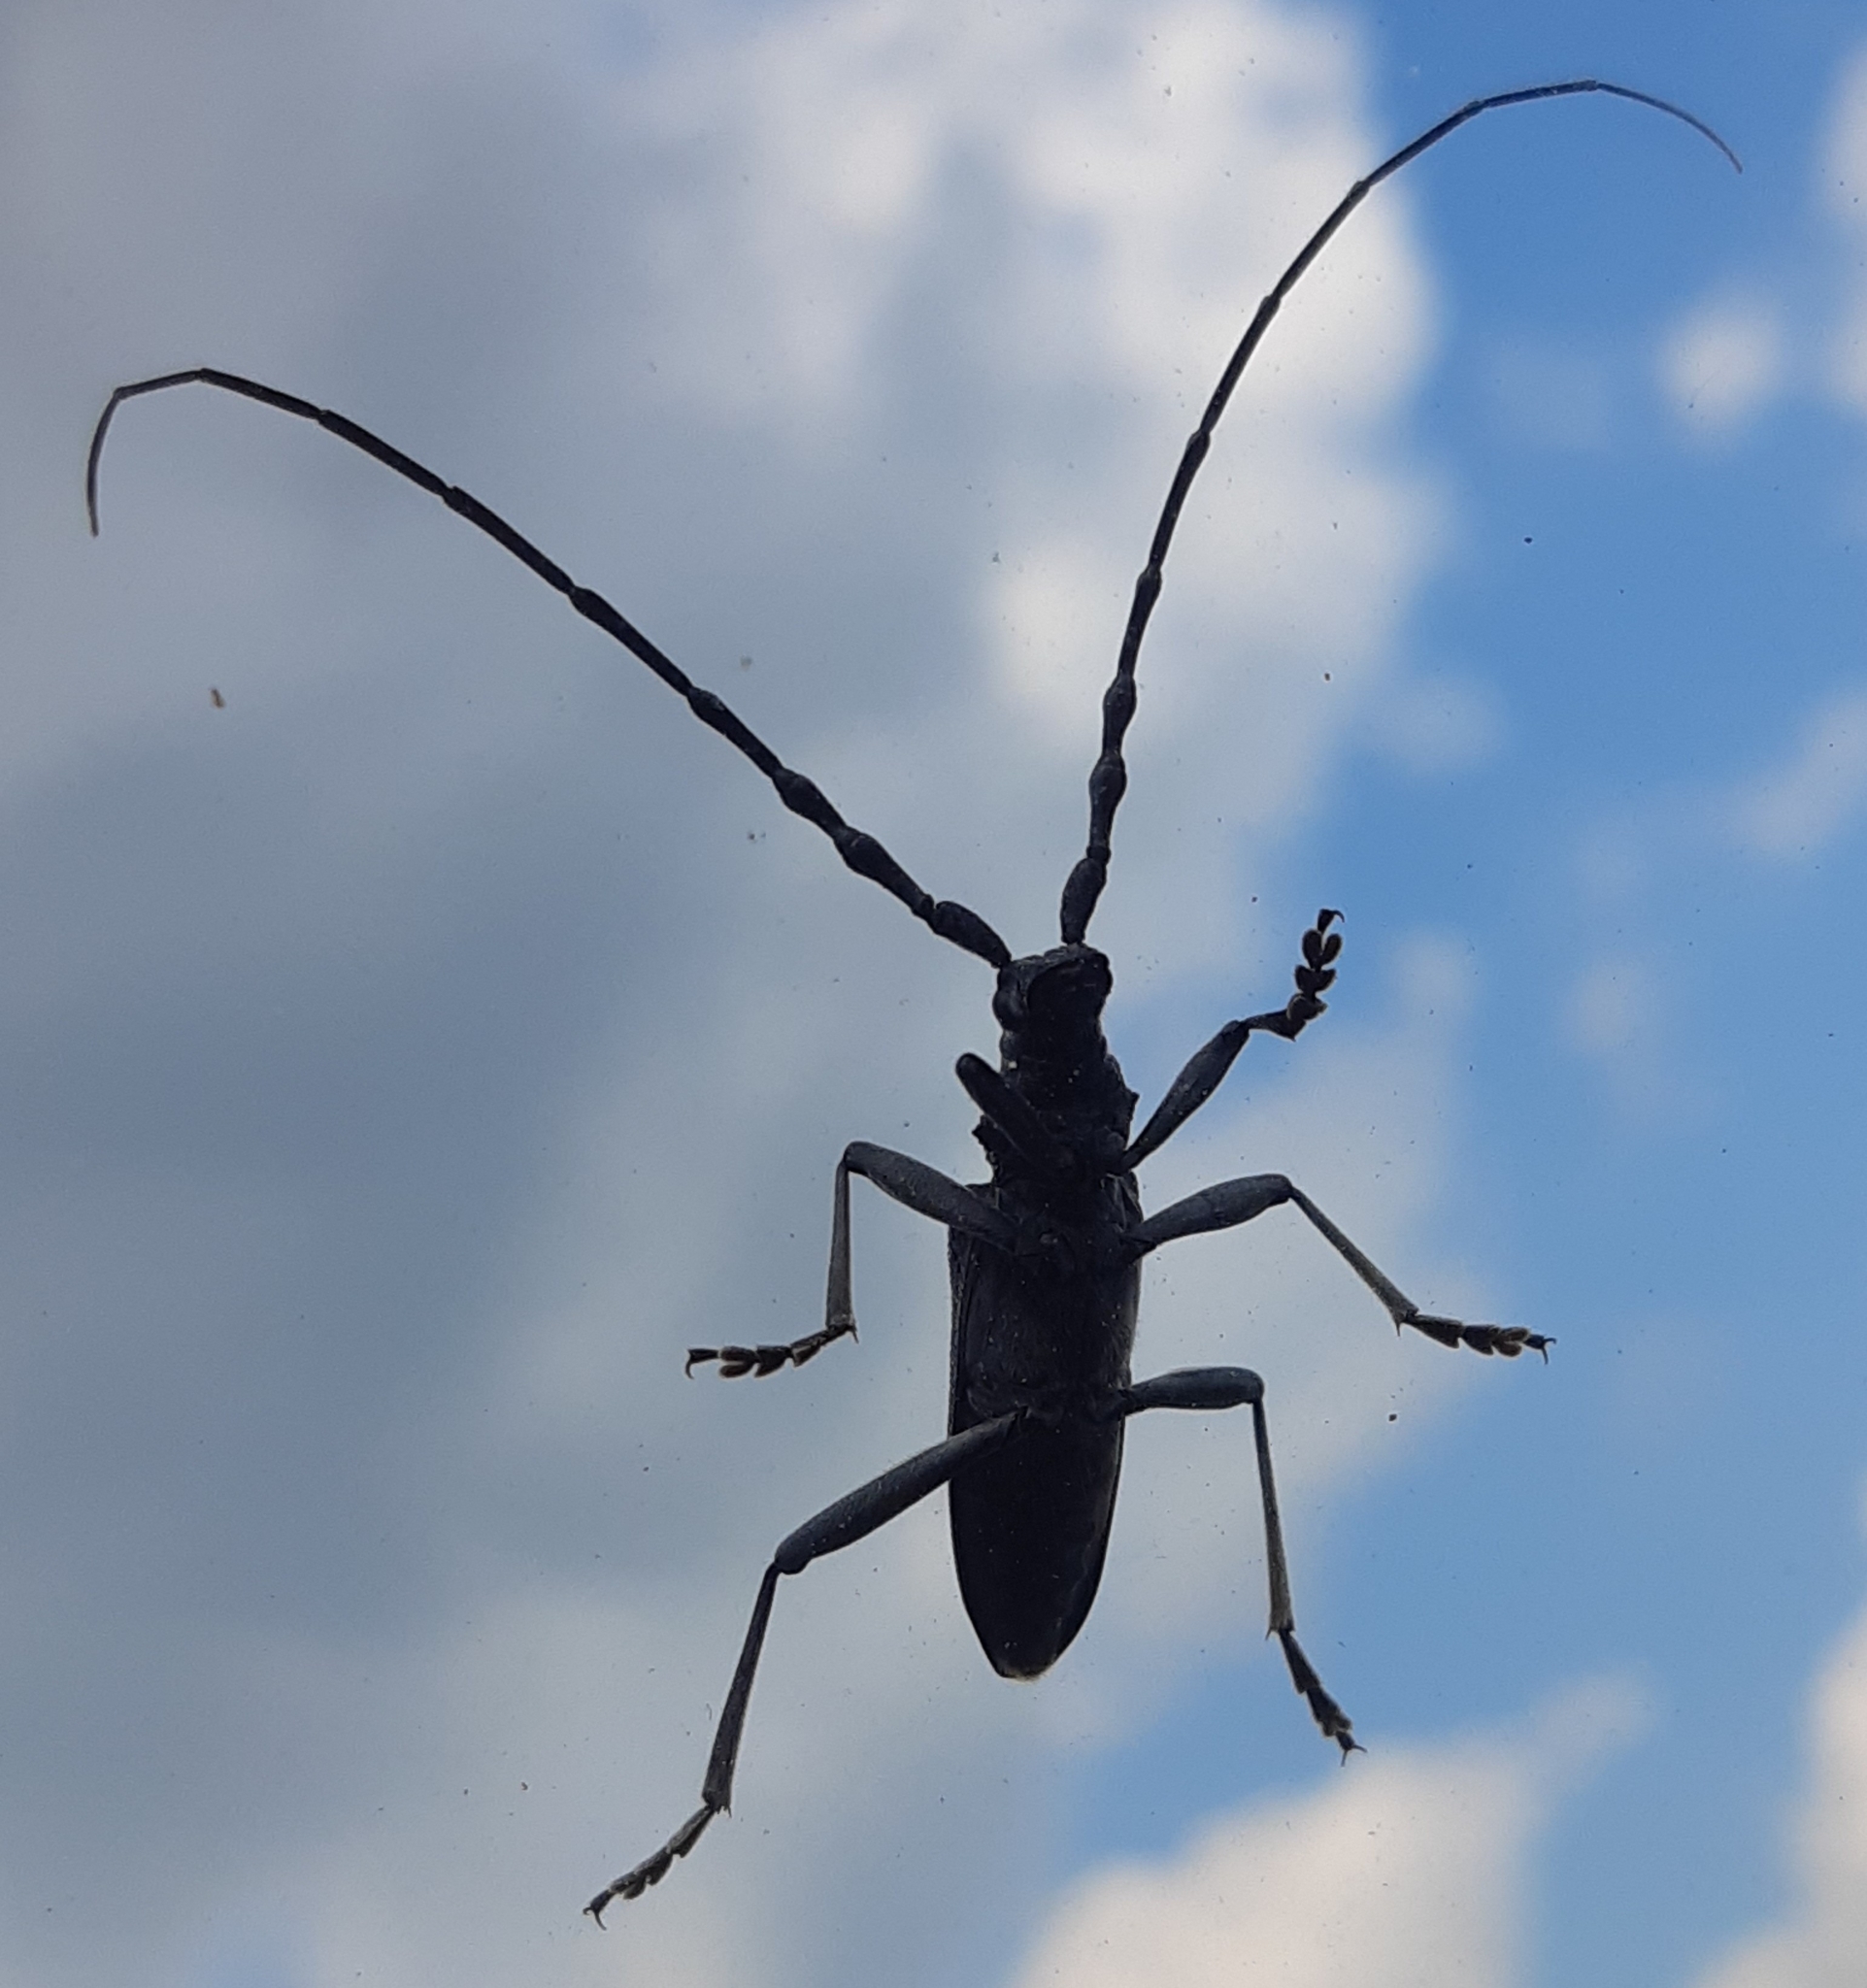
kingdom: Animalia
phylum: Arthropoda
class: Insecta
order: Coleoptera
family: Cerambycidae
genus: Cerambyx
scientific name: Cerambyx scopolii
